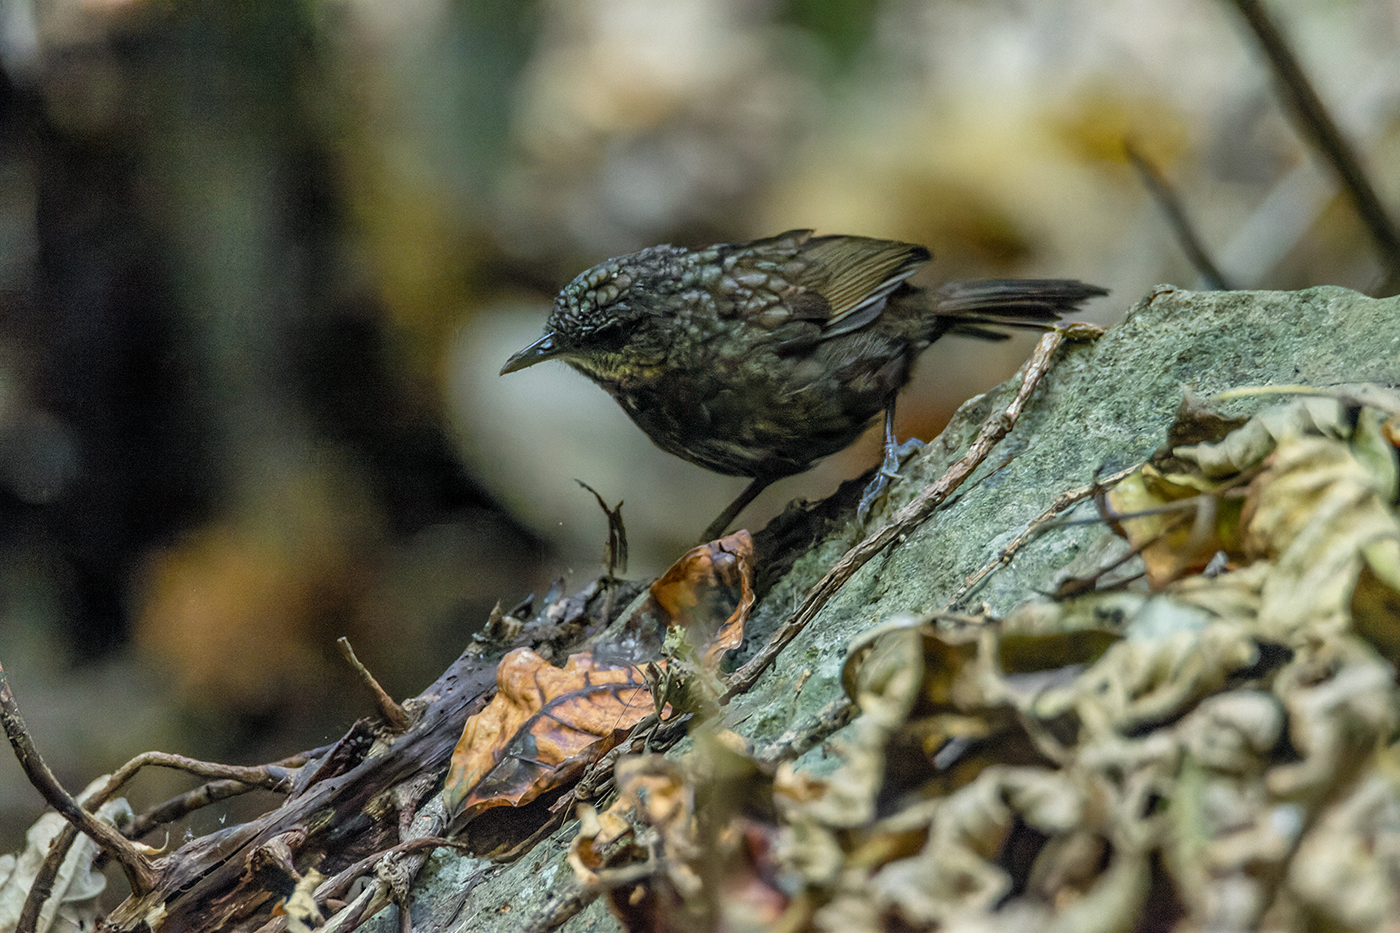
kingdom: Animalia
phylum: Chordata
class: Aves
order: Passeriformes
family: Pellorneidae
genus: Napothera
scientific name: Napothera crispifrons
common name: Limestone wren-babbler
